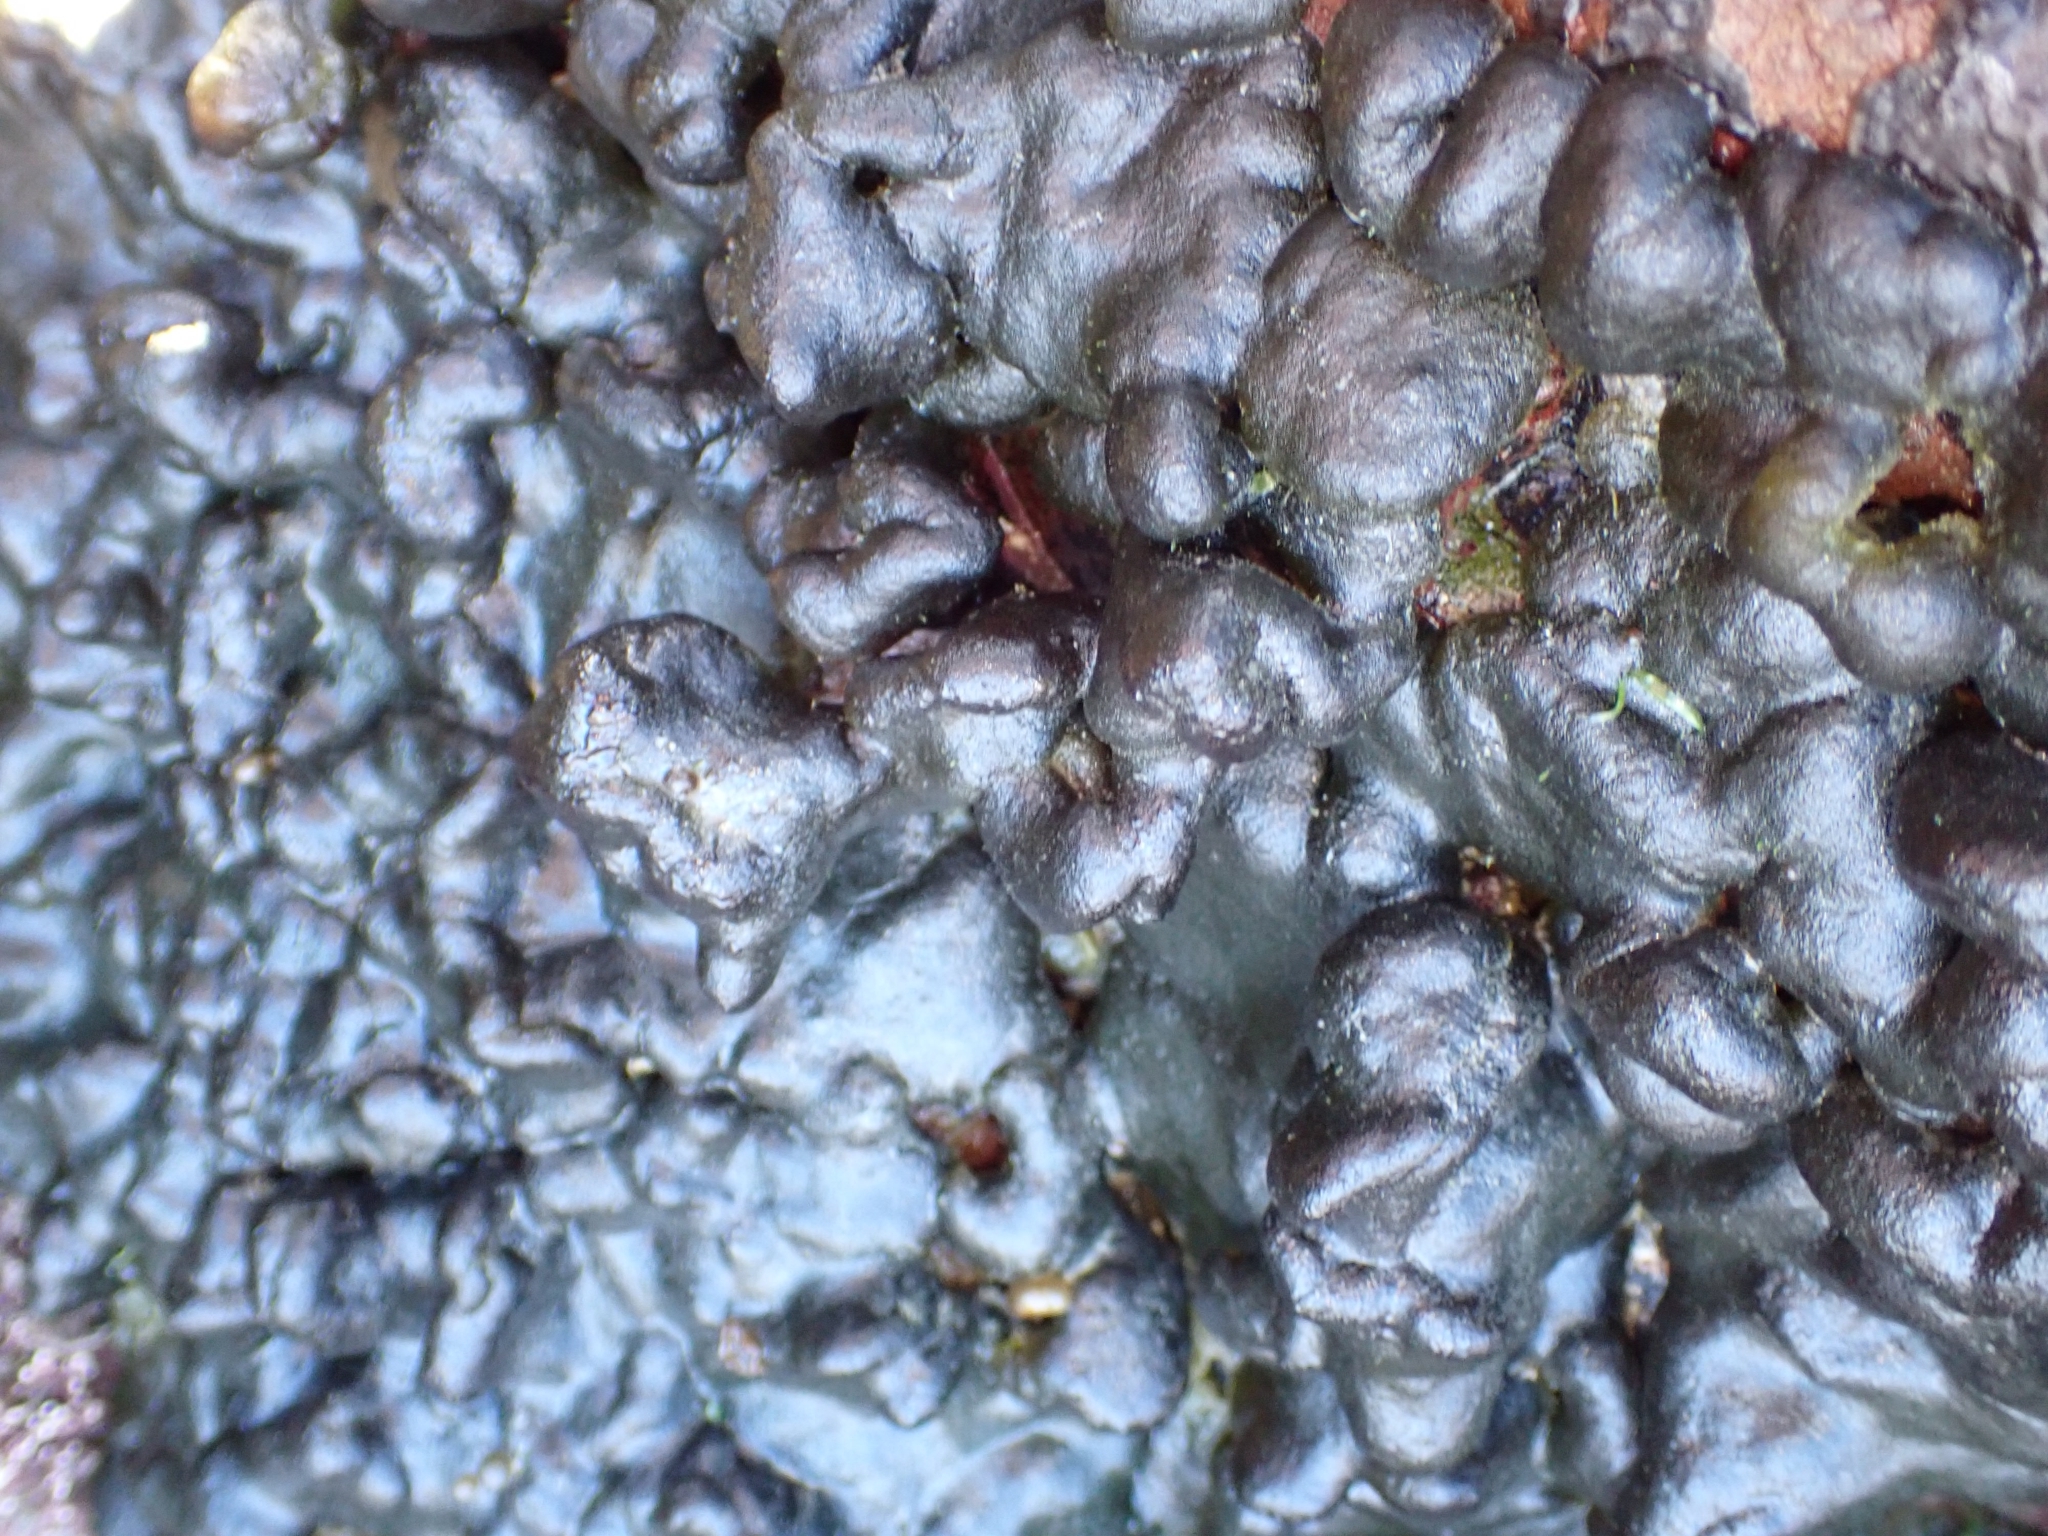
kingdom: Plantae
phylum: Chlorophyta
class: Ulvophyceae
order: Bryopsidales
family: Codiaceae
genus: Codium
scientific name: Codium convolutum
